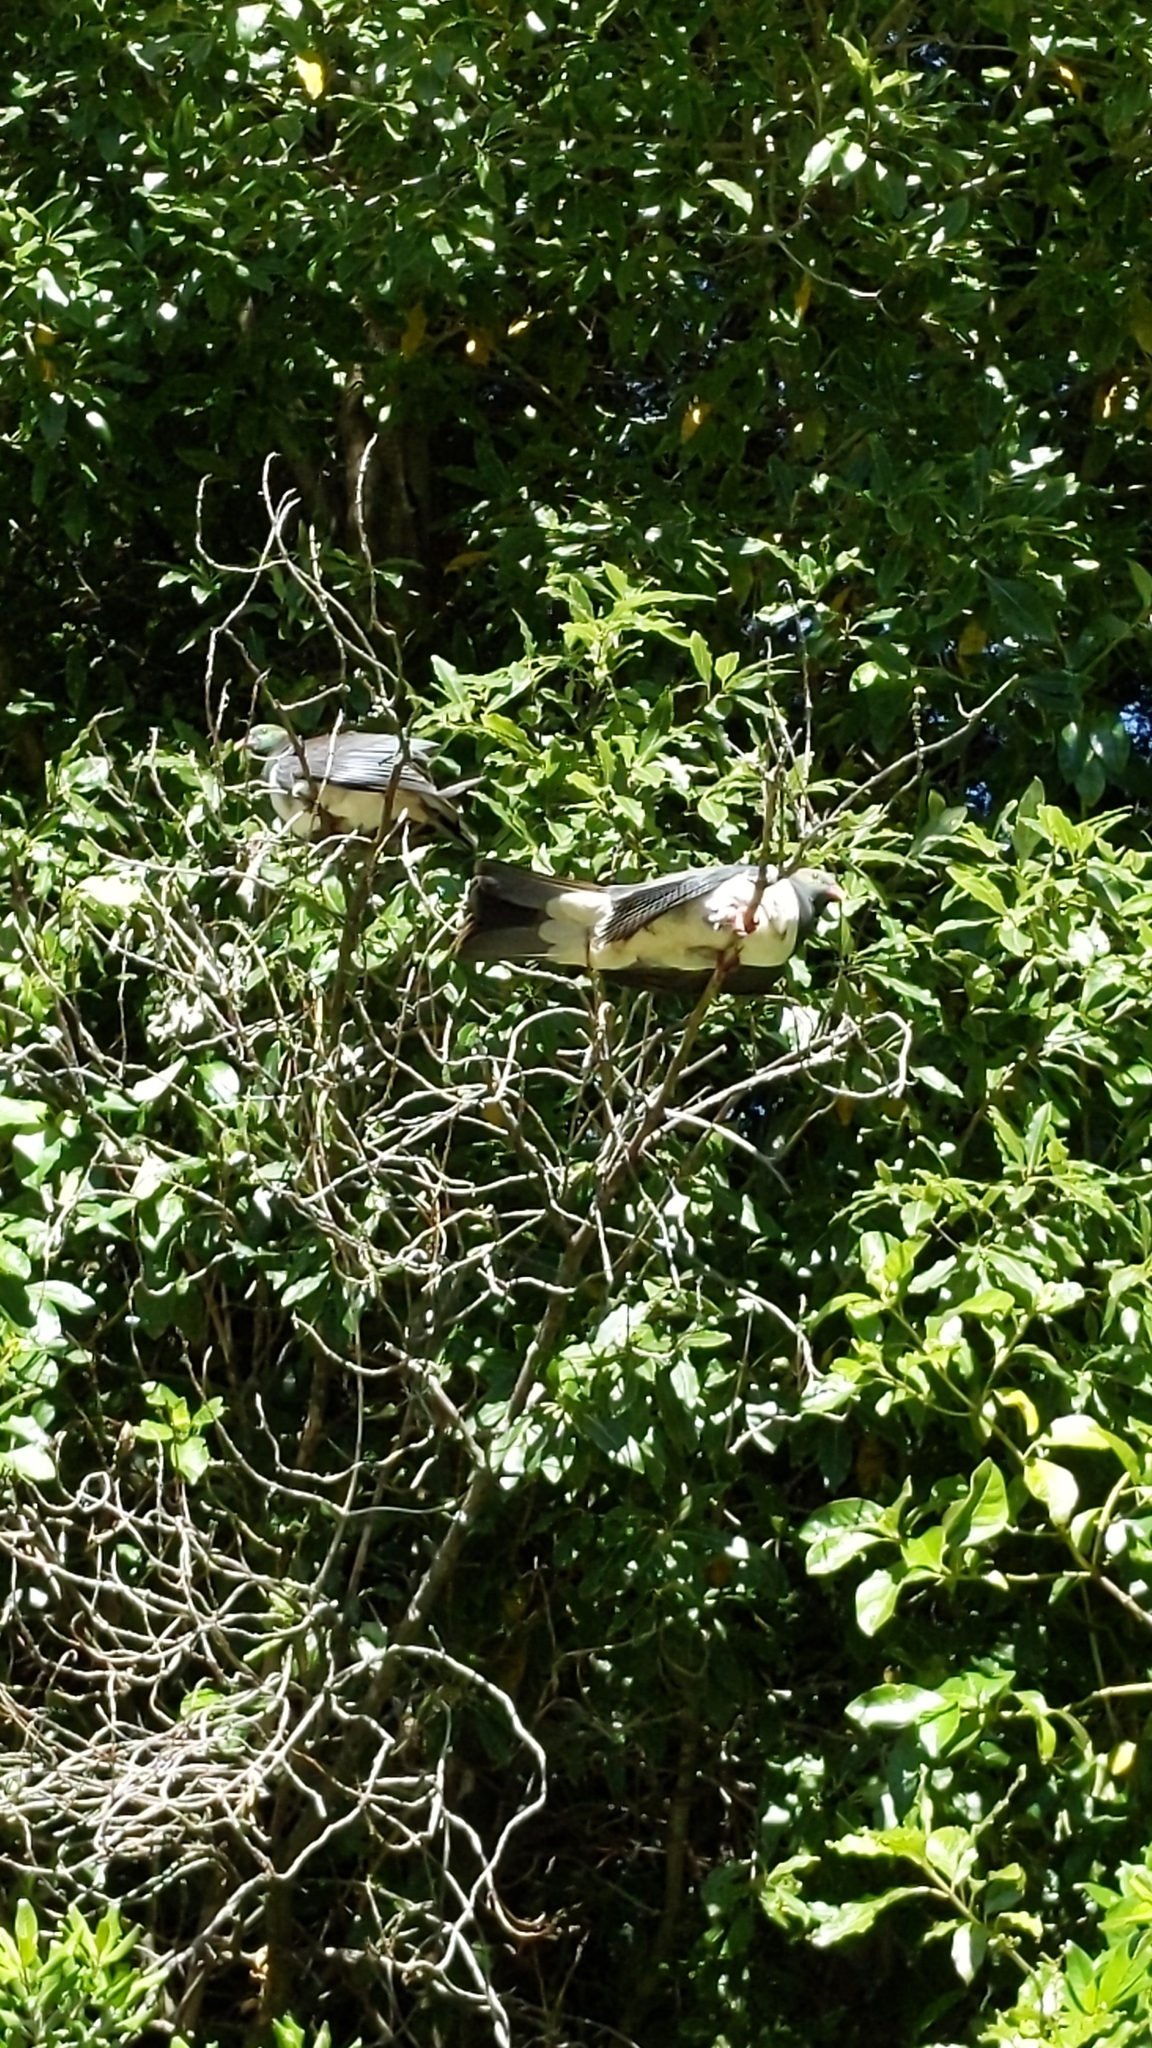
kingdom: Animalia
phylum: Chordata
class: Aves
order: Columbiformes
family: Columbidae
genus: Hemiphaga
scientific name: Hemiphaga novaeseelandiae
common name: New zealand pigeon
